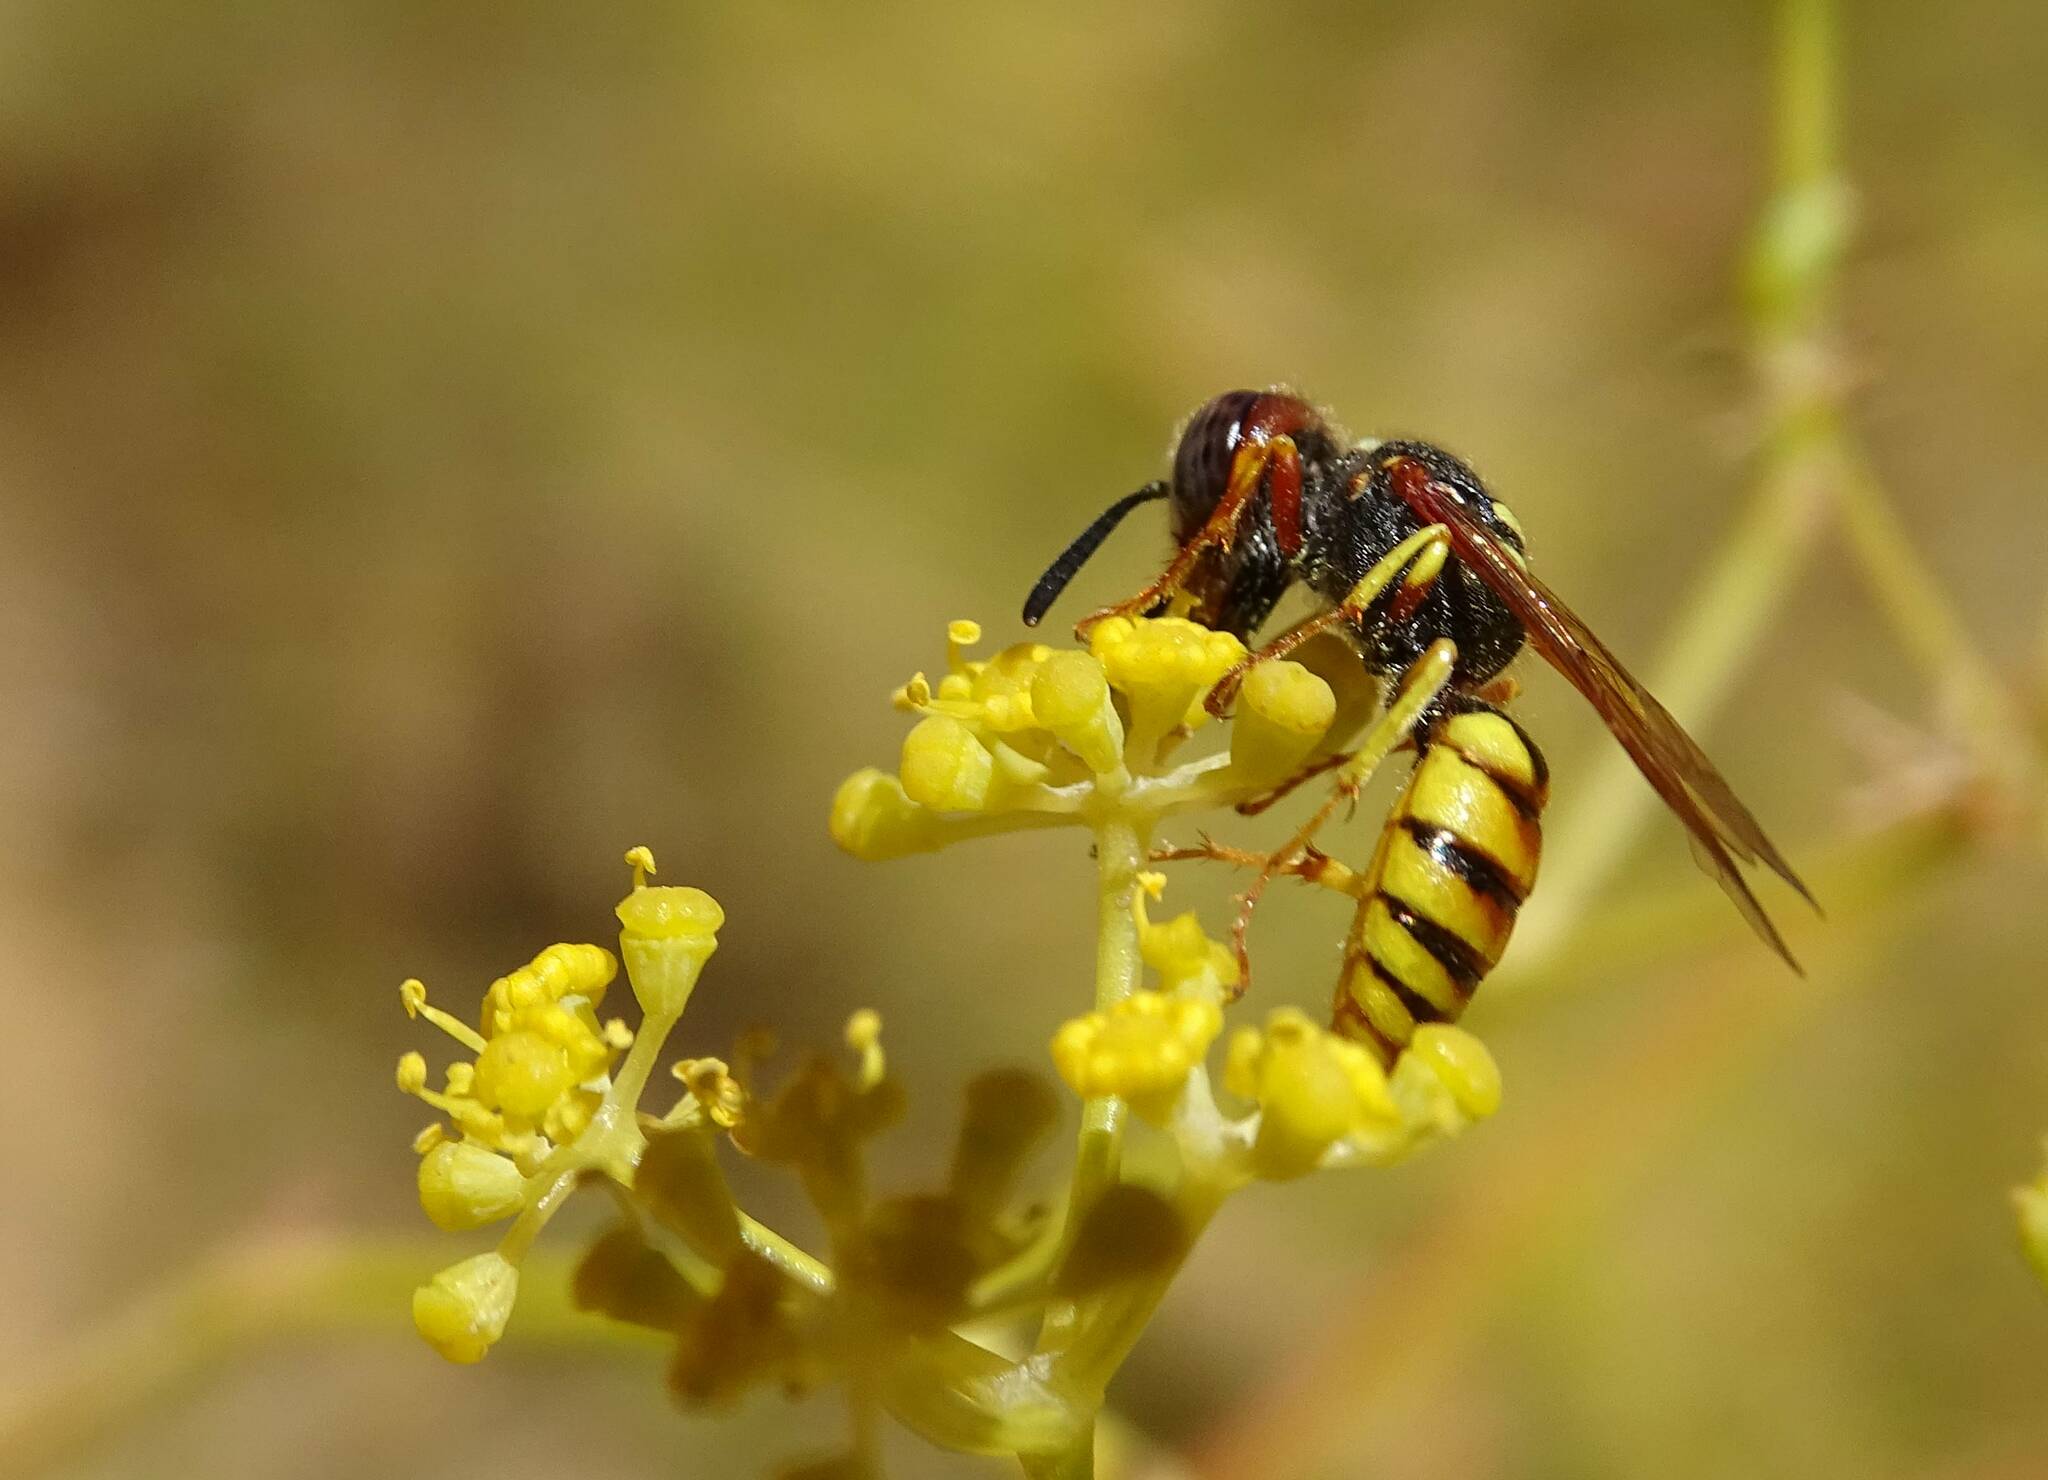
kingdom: Animalia
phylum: Arthropoda
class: Insecta
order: Hymenoptera
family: Crabronidae
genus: Philanthus
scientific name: Philanthus triangulum
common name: Bee wolf
